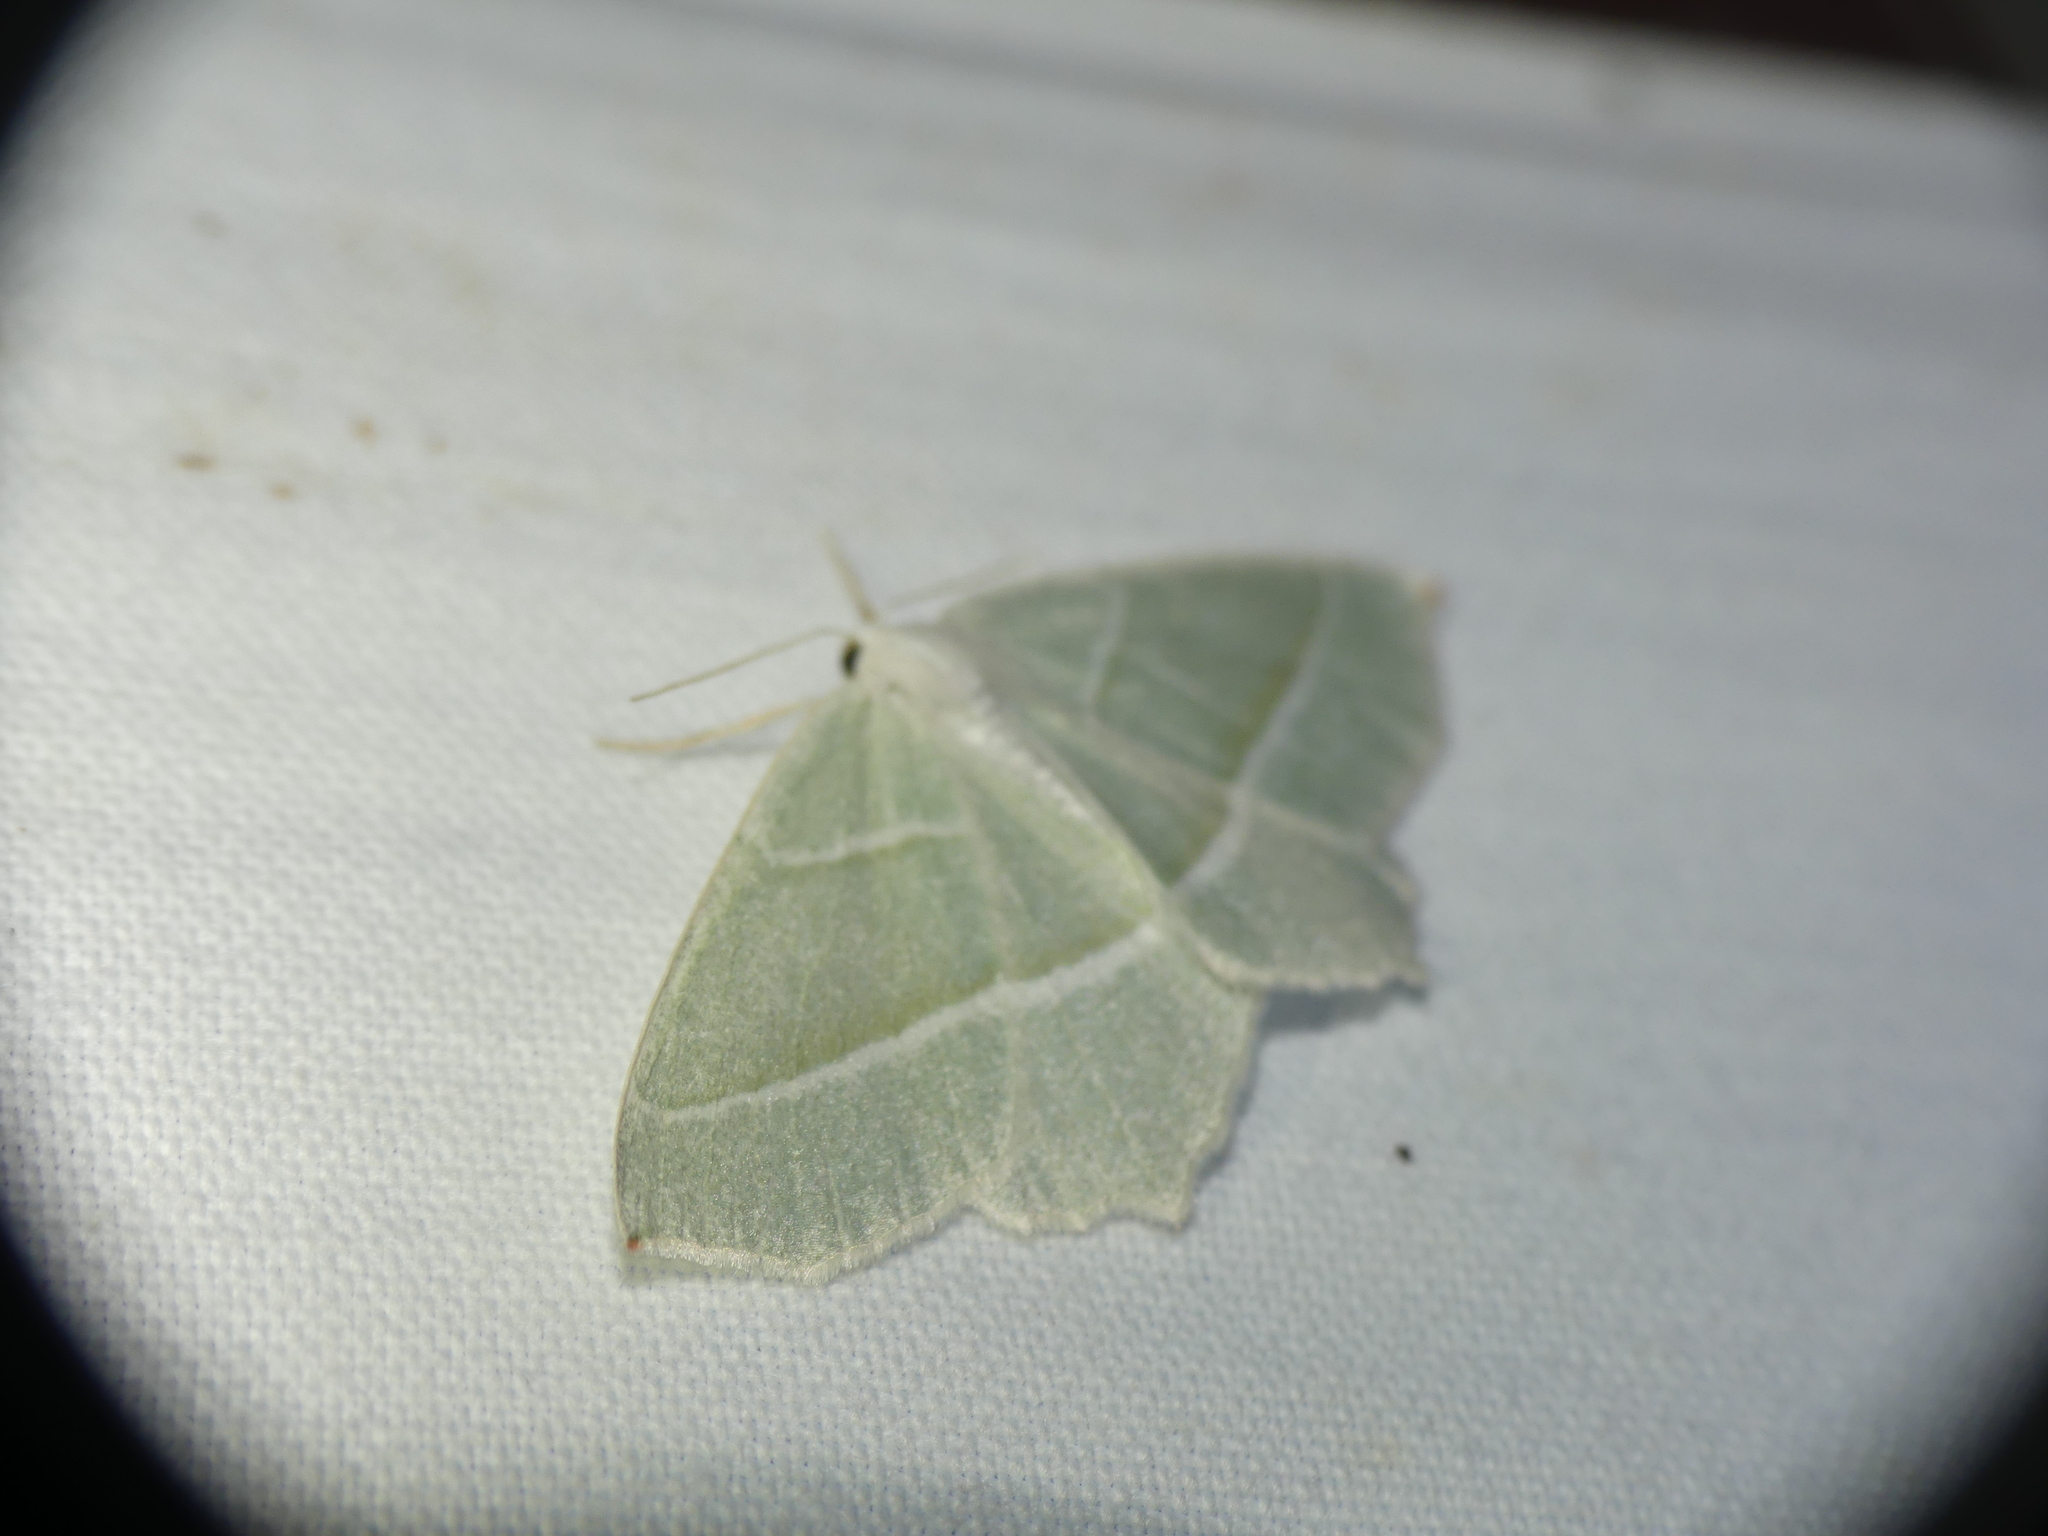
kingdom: Animalia
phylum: Arthropoda
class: Insecta
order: Lepidoptera
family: Geometridae
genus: Campaea
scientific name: Campaea margaritaria
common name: Light emerald
